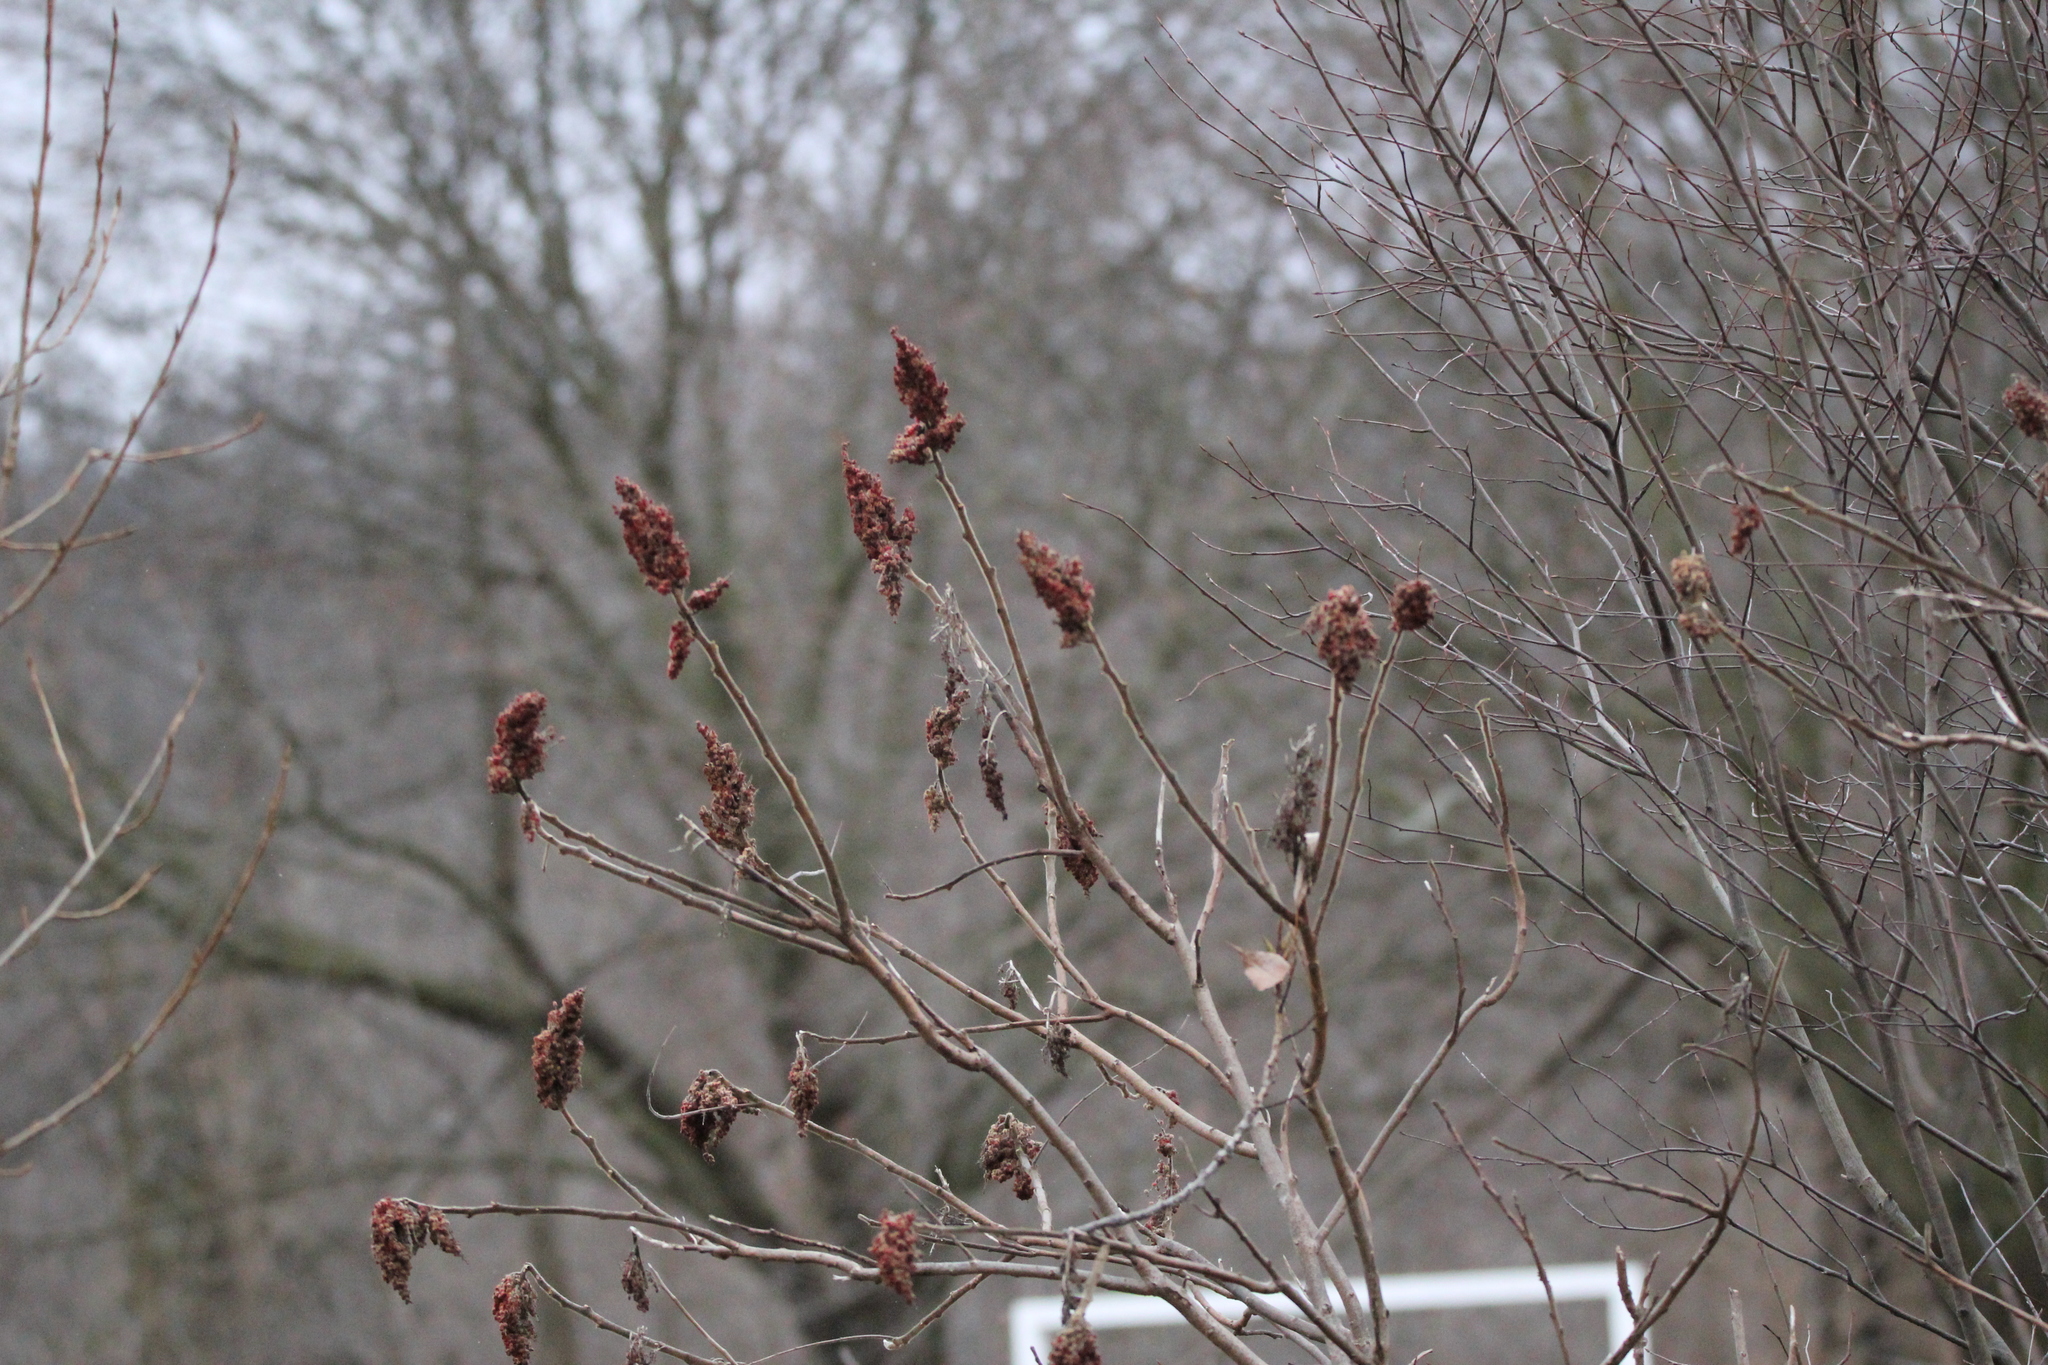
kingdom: Plantae
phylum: Tracheophyta
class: Magnoliopsida
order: Sapindales
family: Anacardiaceae
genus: Rhus
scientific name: Rhus typhina
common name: Staghorn sumac
